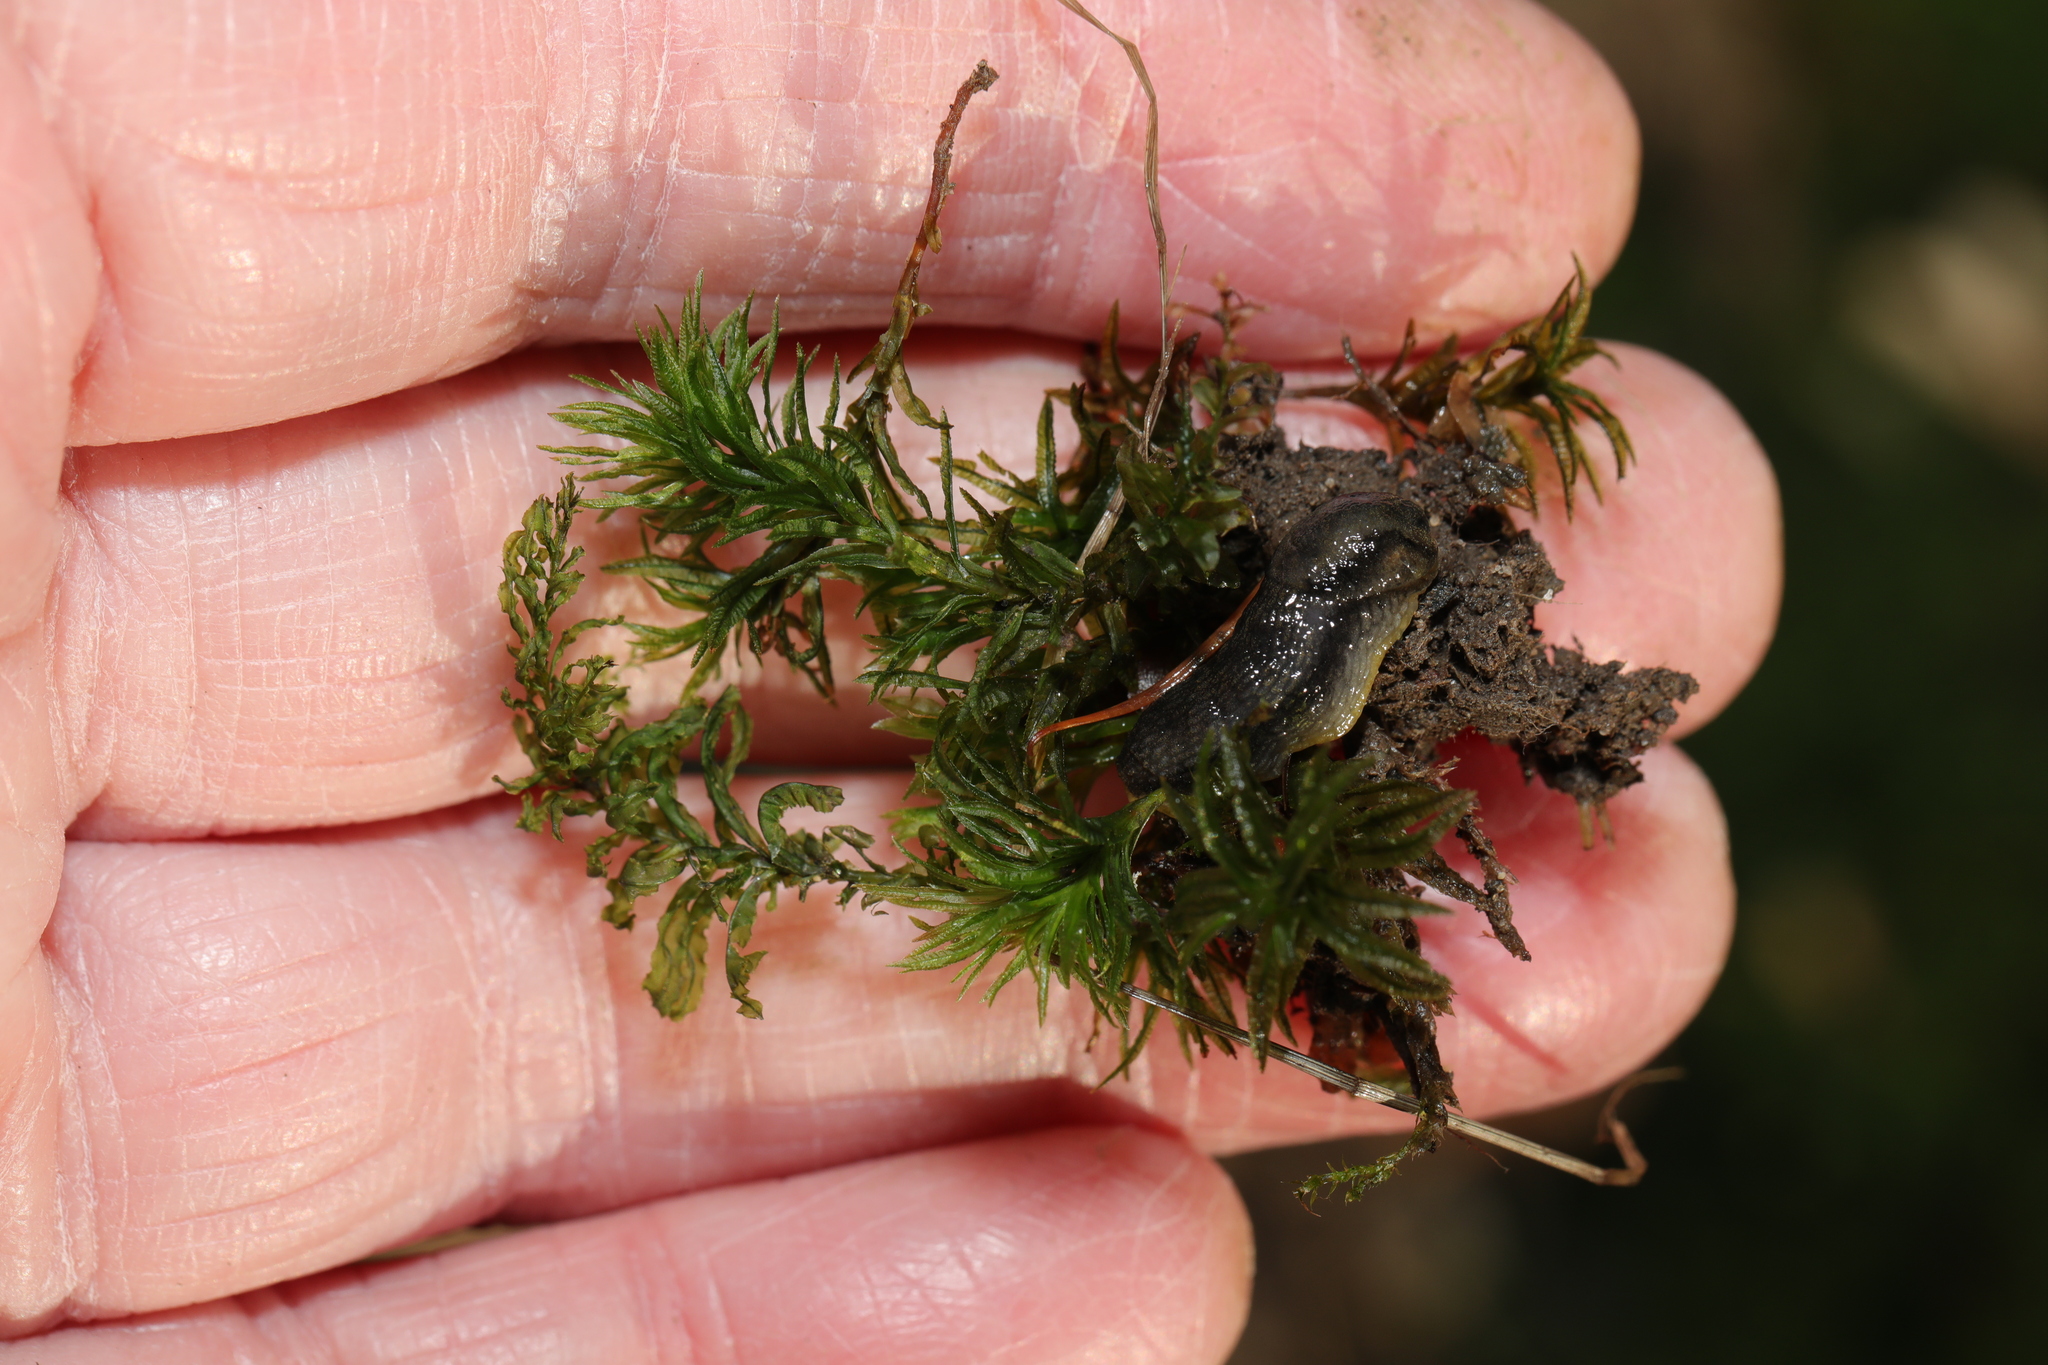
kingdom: Plantae
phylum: Bryophyta
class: Polytrichopsida
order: Polytrichales
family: Polytrichaceae
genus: Atrichum
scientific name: Atrichum undulatum
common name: Common smoothcap
